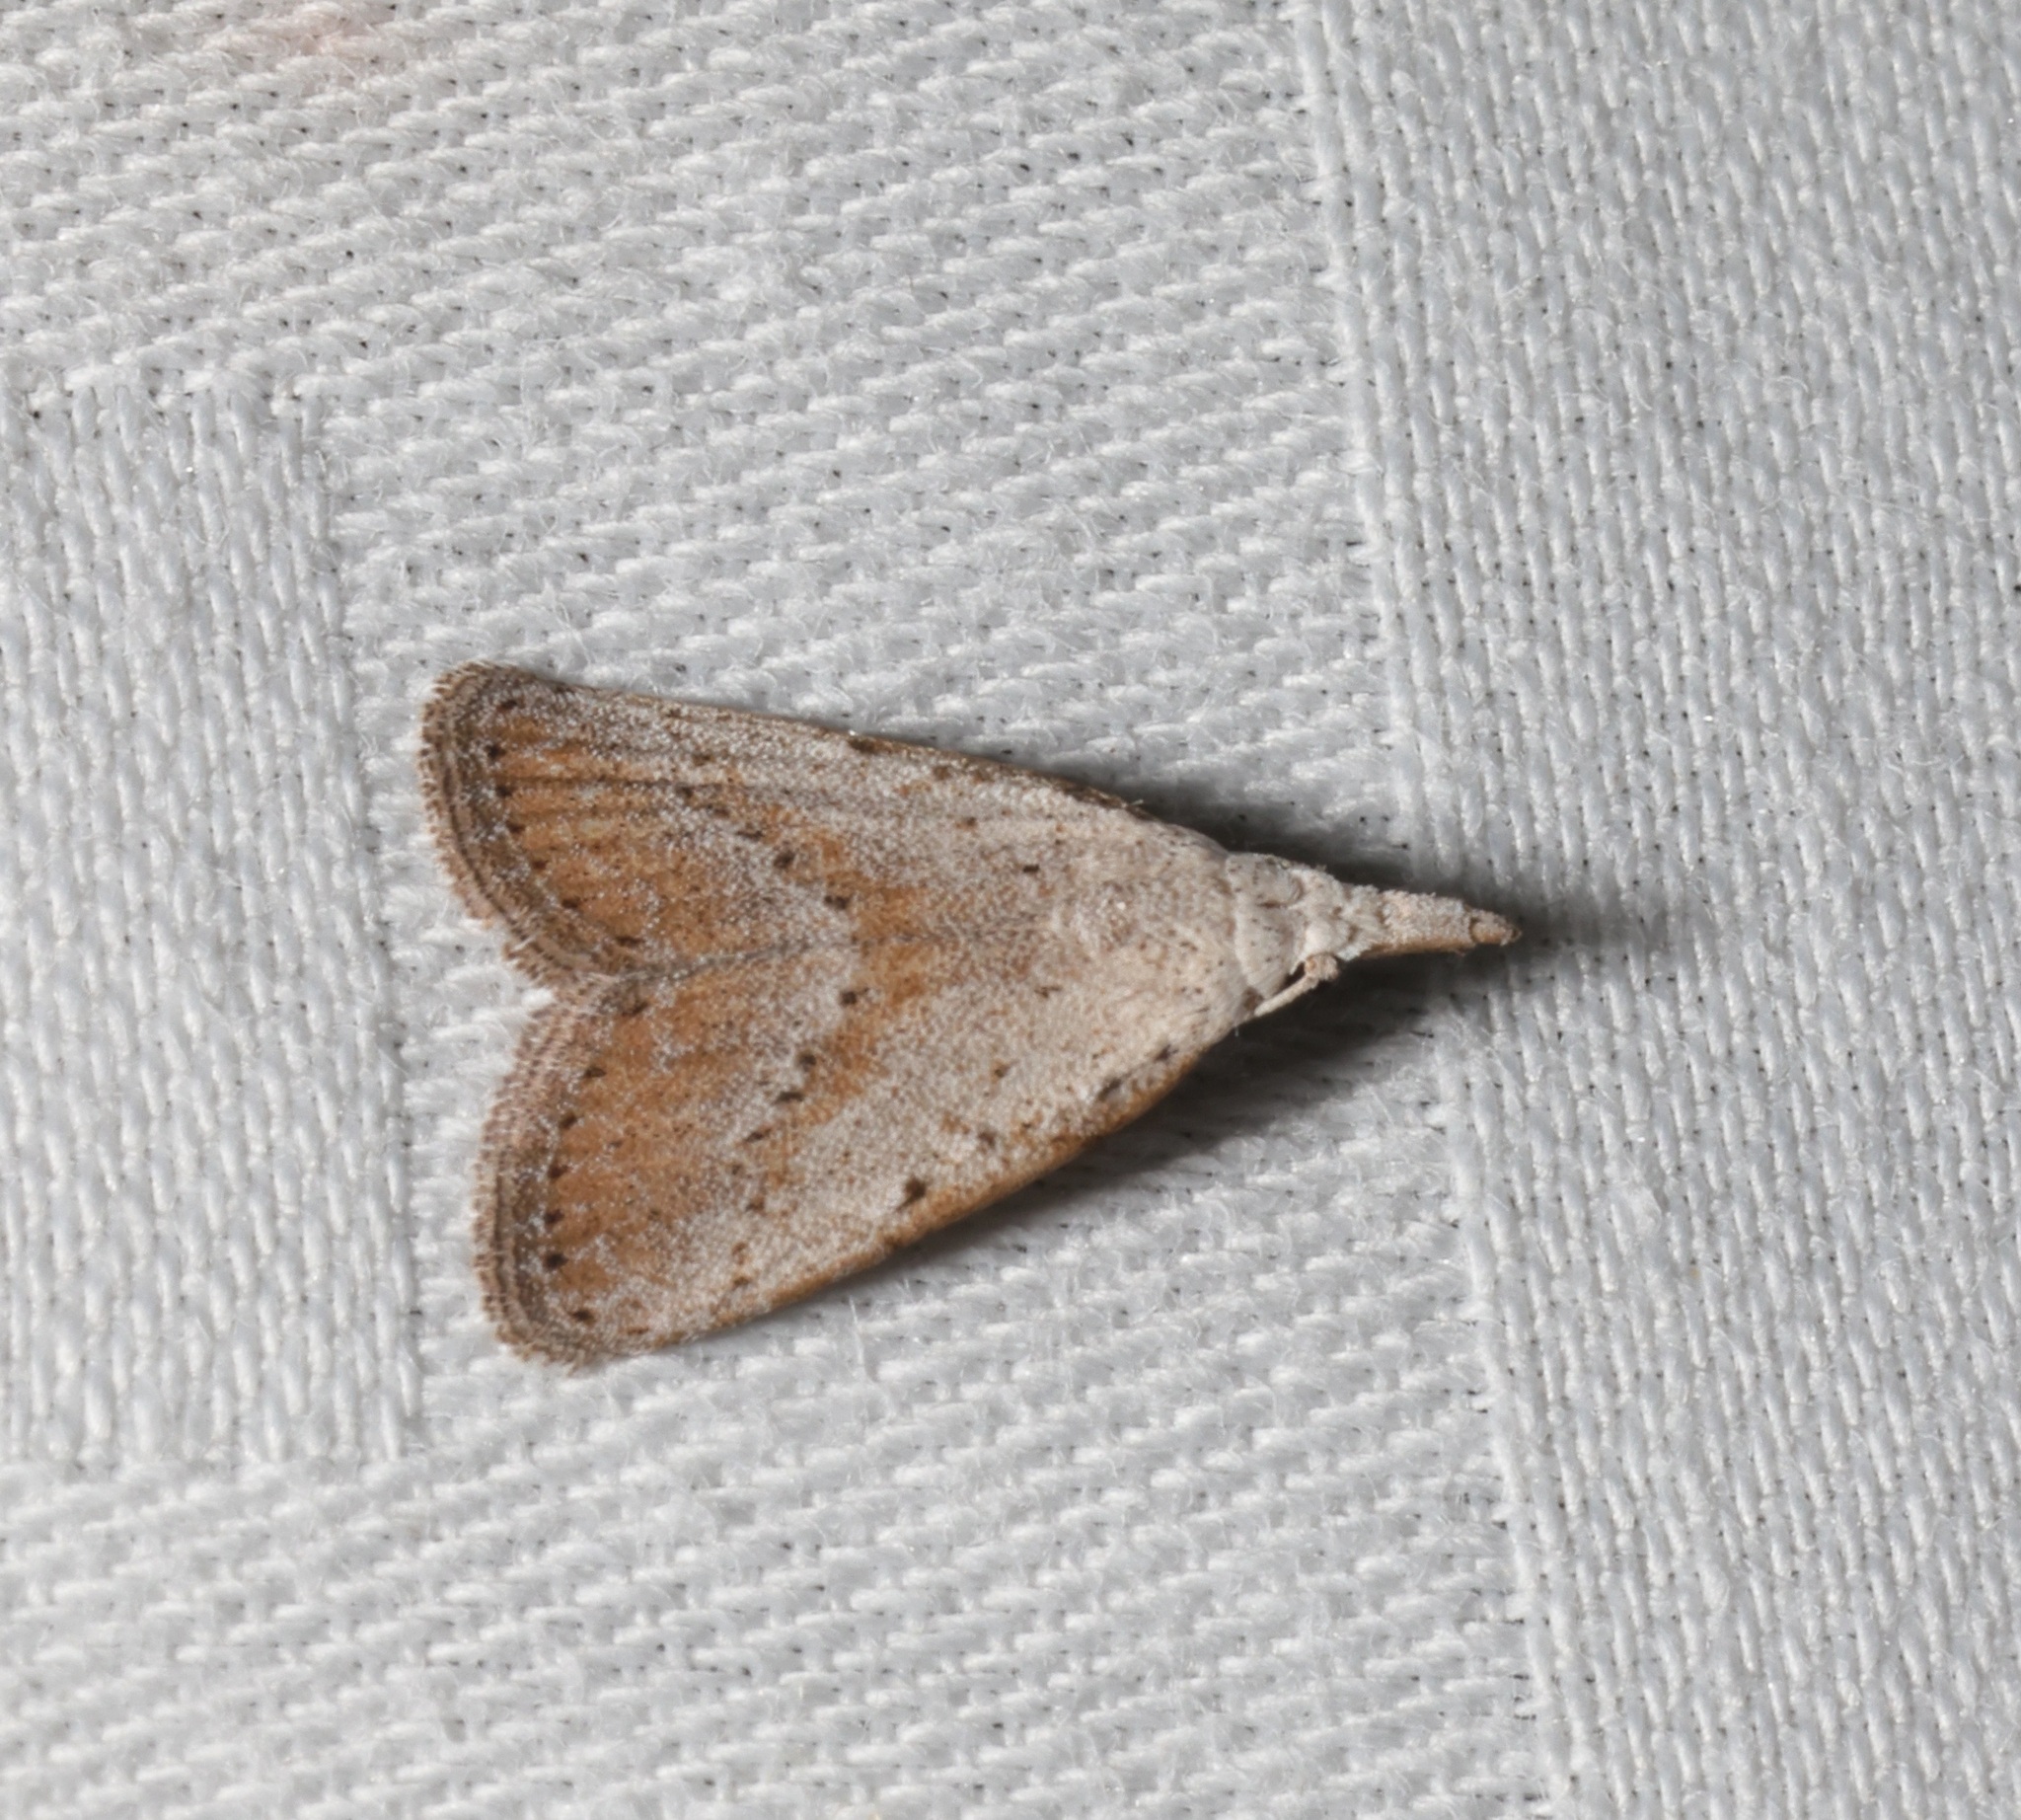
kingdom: Animalia
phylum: Arthropoda
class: Insecta
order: Lepidoptera
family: Nolidae
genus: Meganola
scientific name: Meganola brunellus
